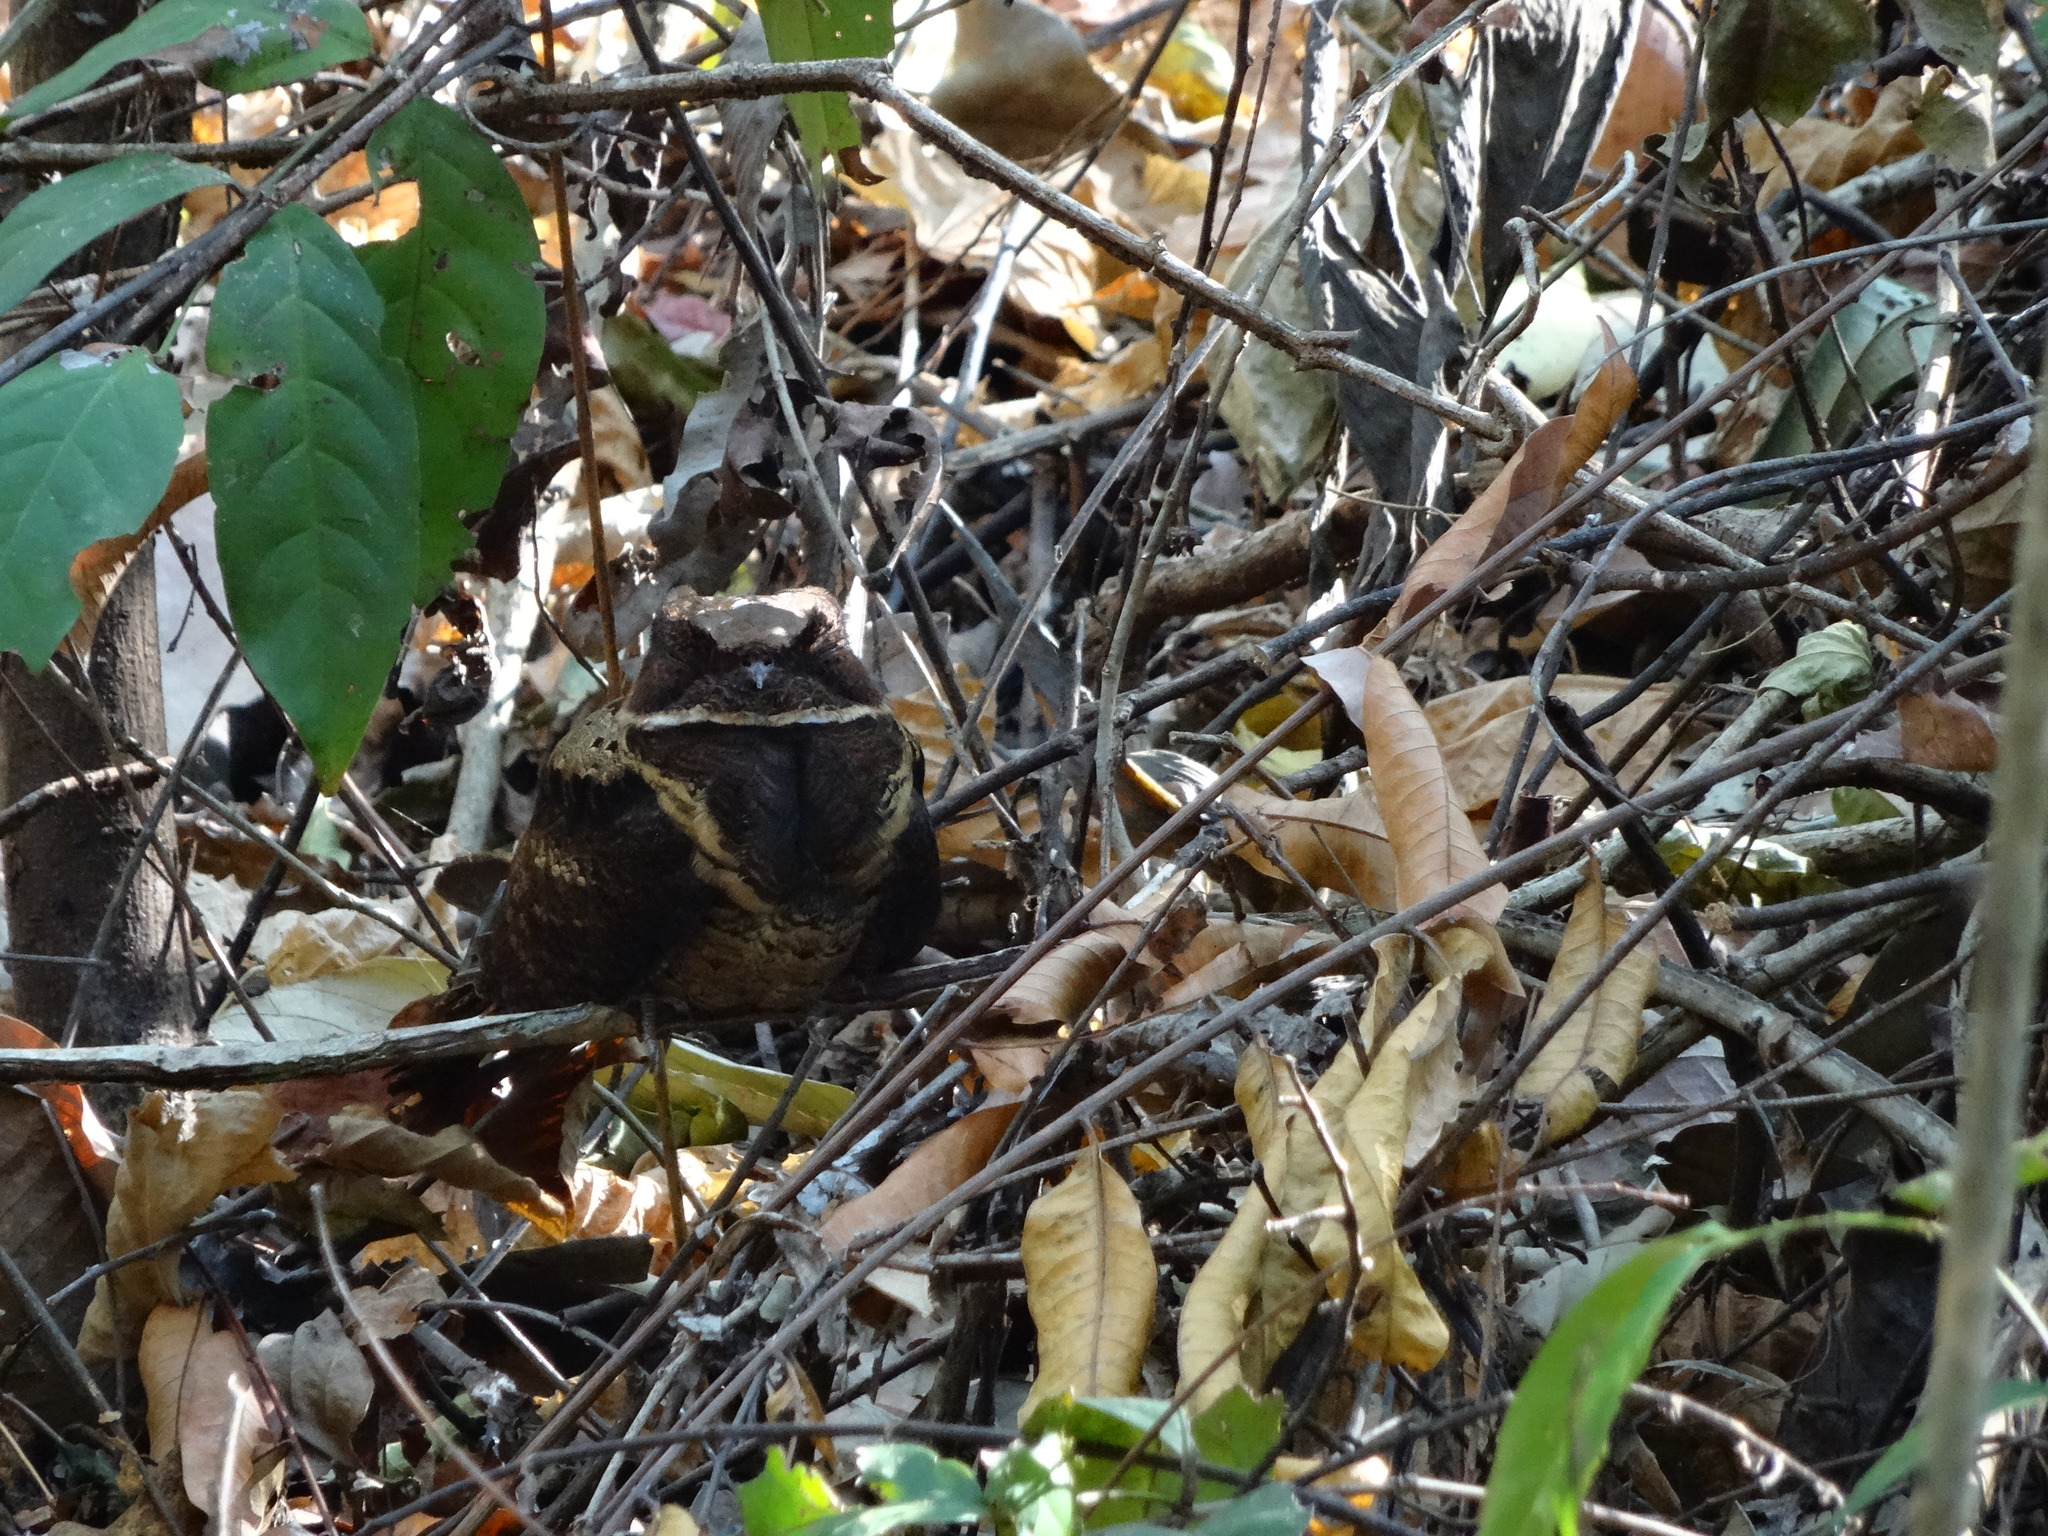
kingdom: Animalia
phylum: Chordata
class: Aves
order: Caprimulgiformes
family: Caprimulgidae
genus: Lyncornis
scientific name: Lyncornis macrotis
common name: Great eared-nightjar
